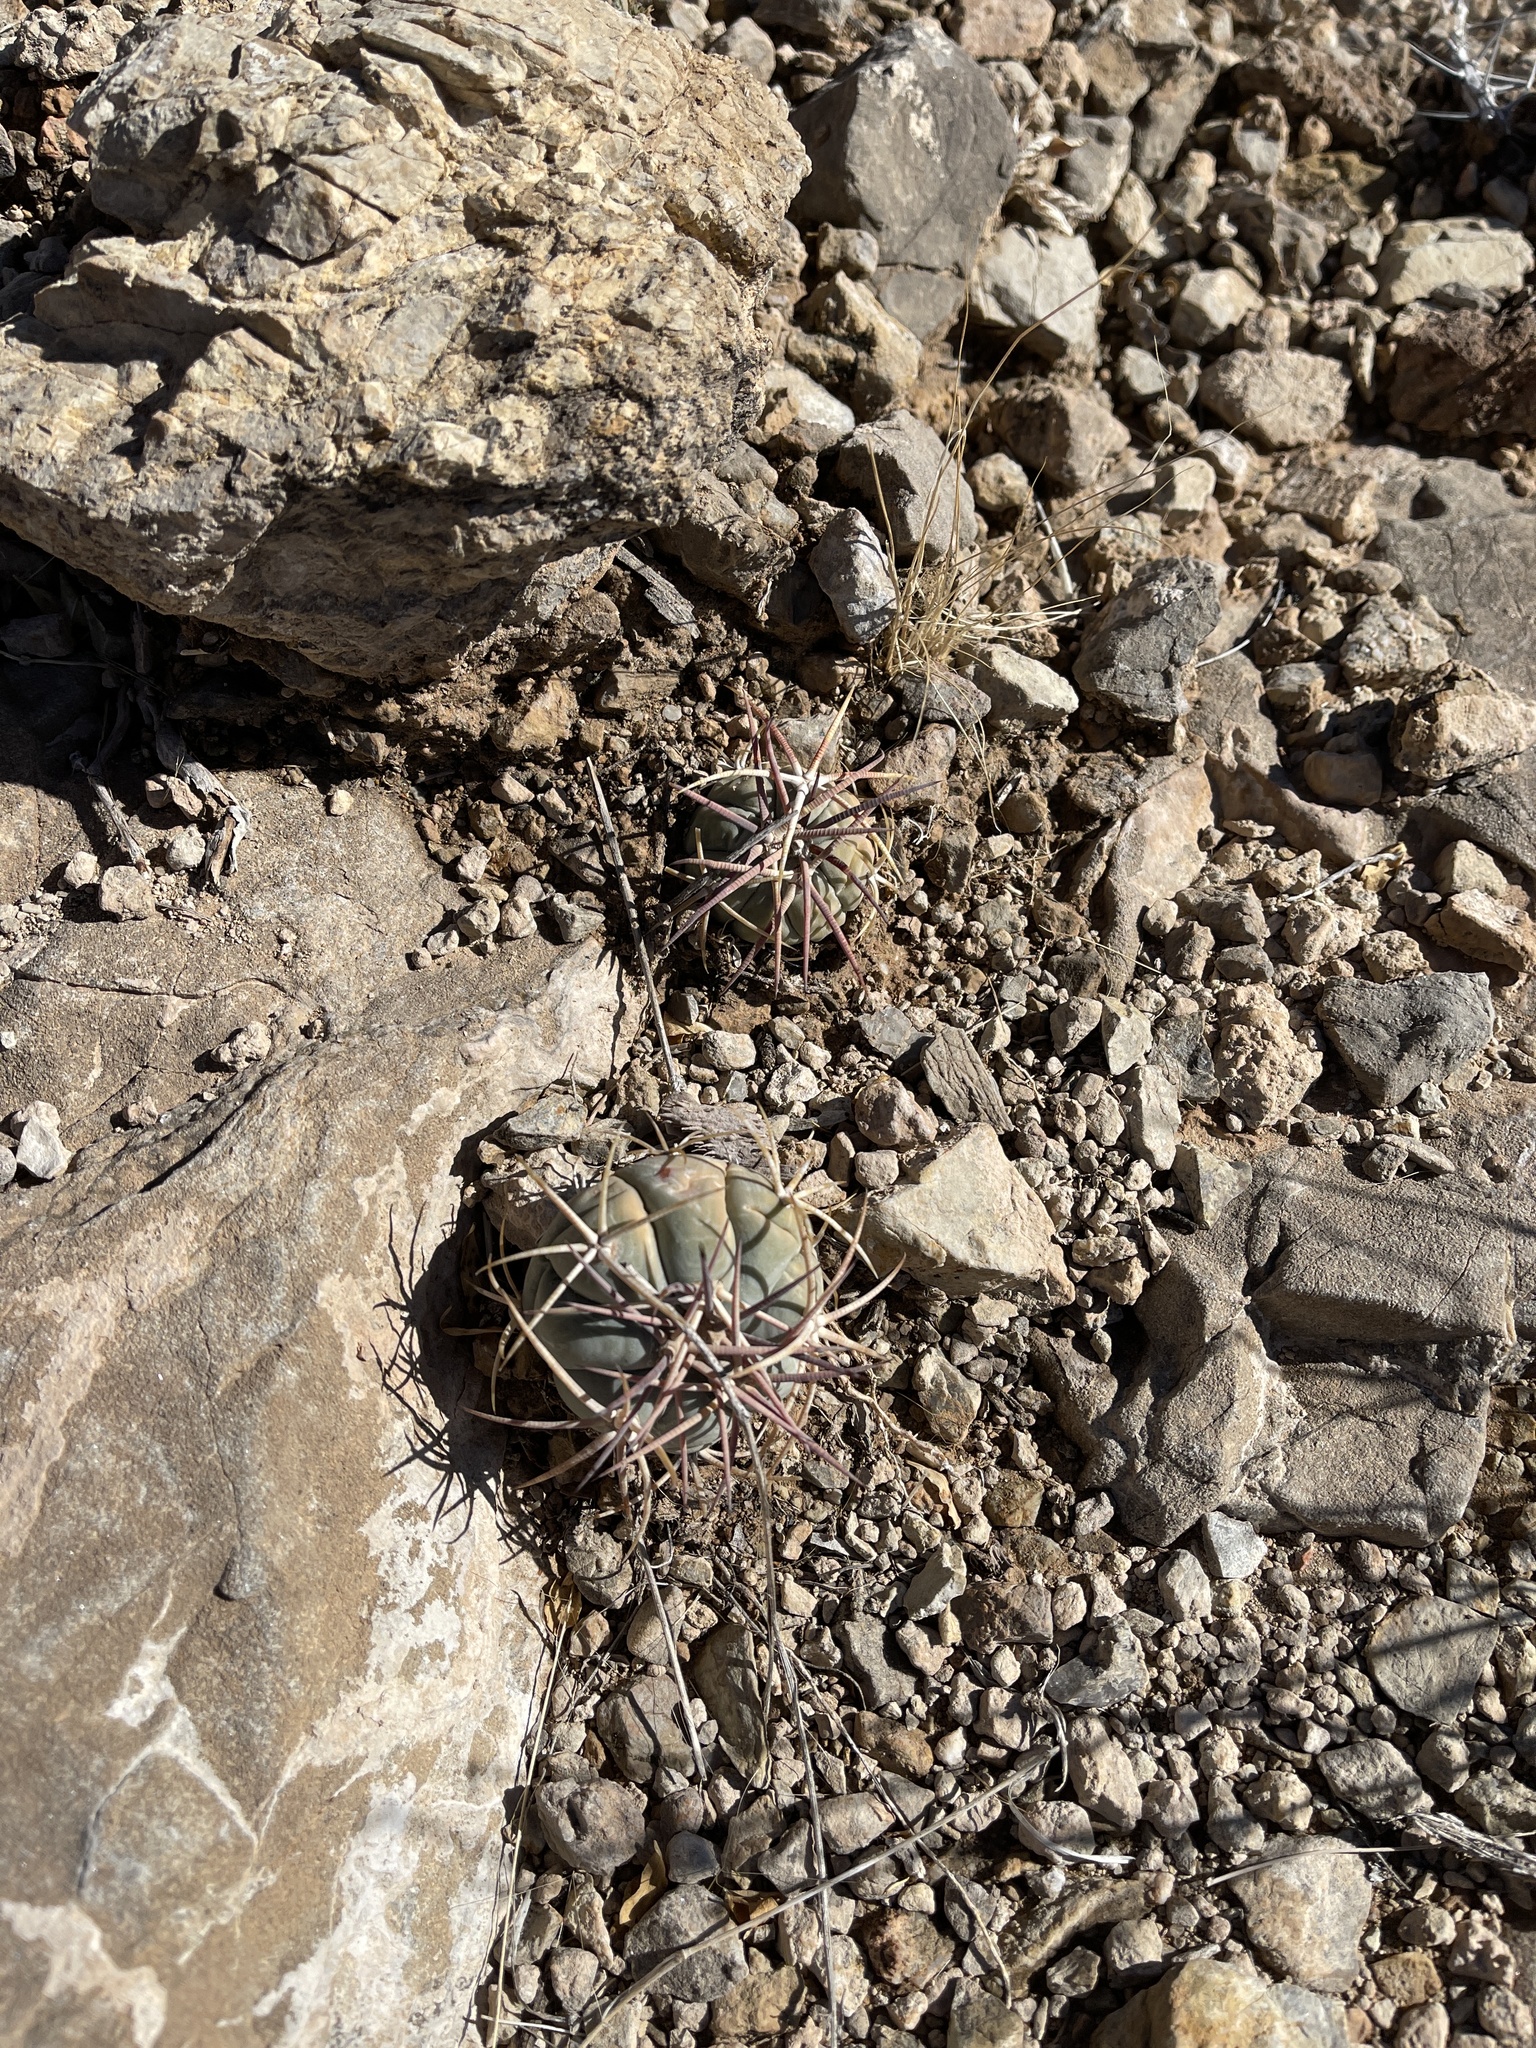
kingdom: Plantae
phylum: Tracheophyta
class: Magnoliopsida
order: Caryophyllales
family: Cactaceae
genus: Echinocactus
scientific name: Echinocactus horizonthalonius
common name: Devilshead
